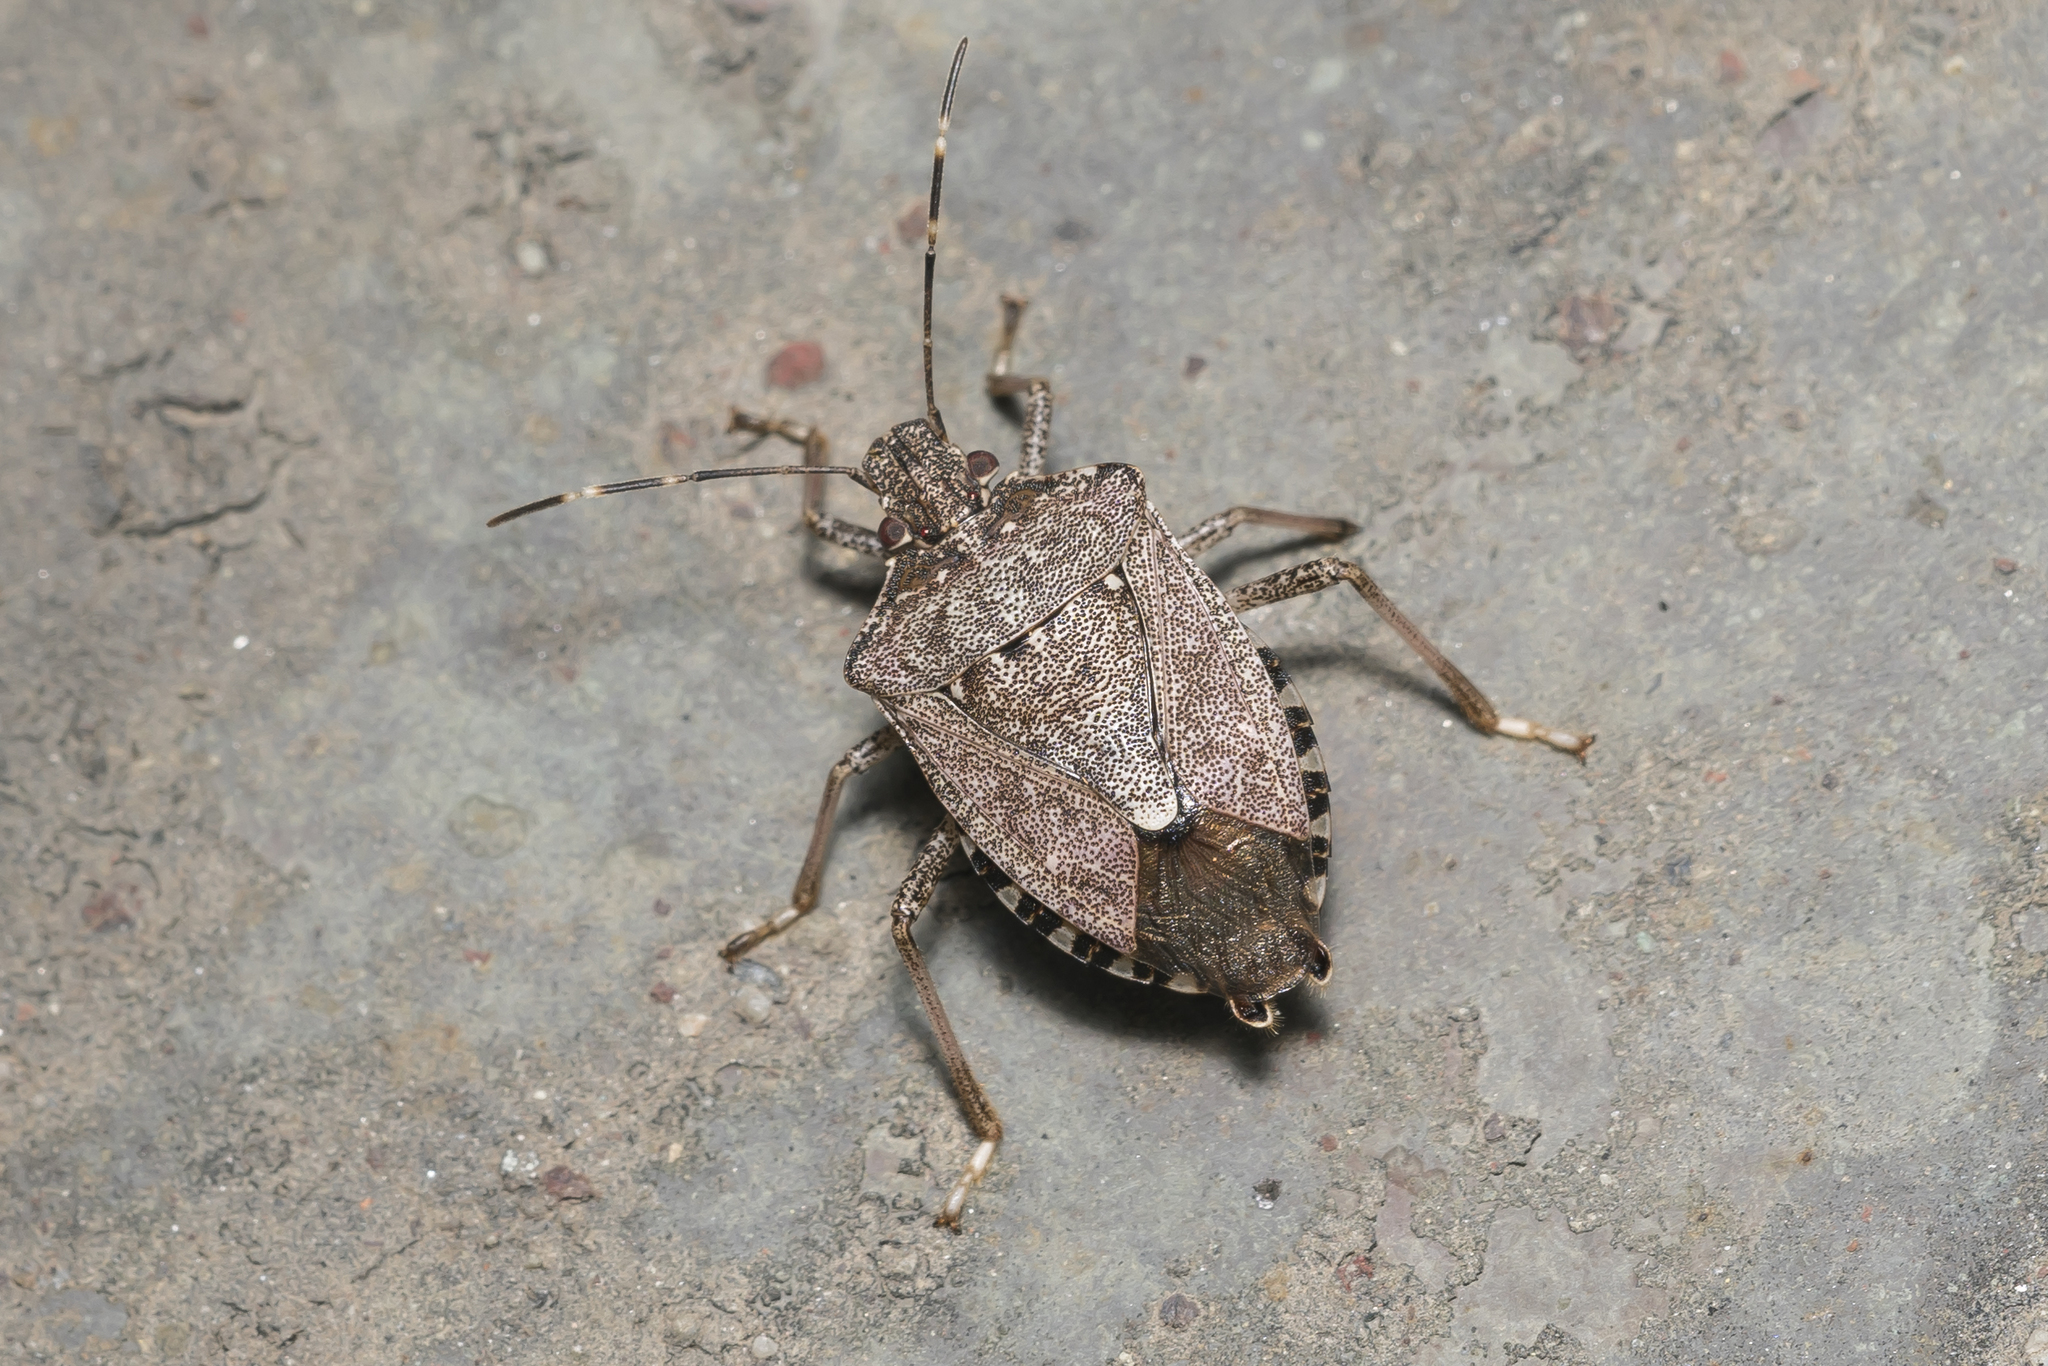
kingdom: Animalia
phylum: Arthropoda
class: Insecta
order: Hemiptera
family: Pentatomidae
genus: Halyomorpha
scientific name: Halyomorpha halys
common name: Brown marmorated stink bug
